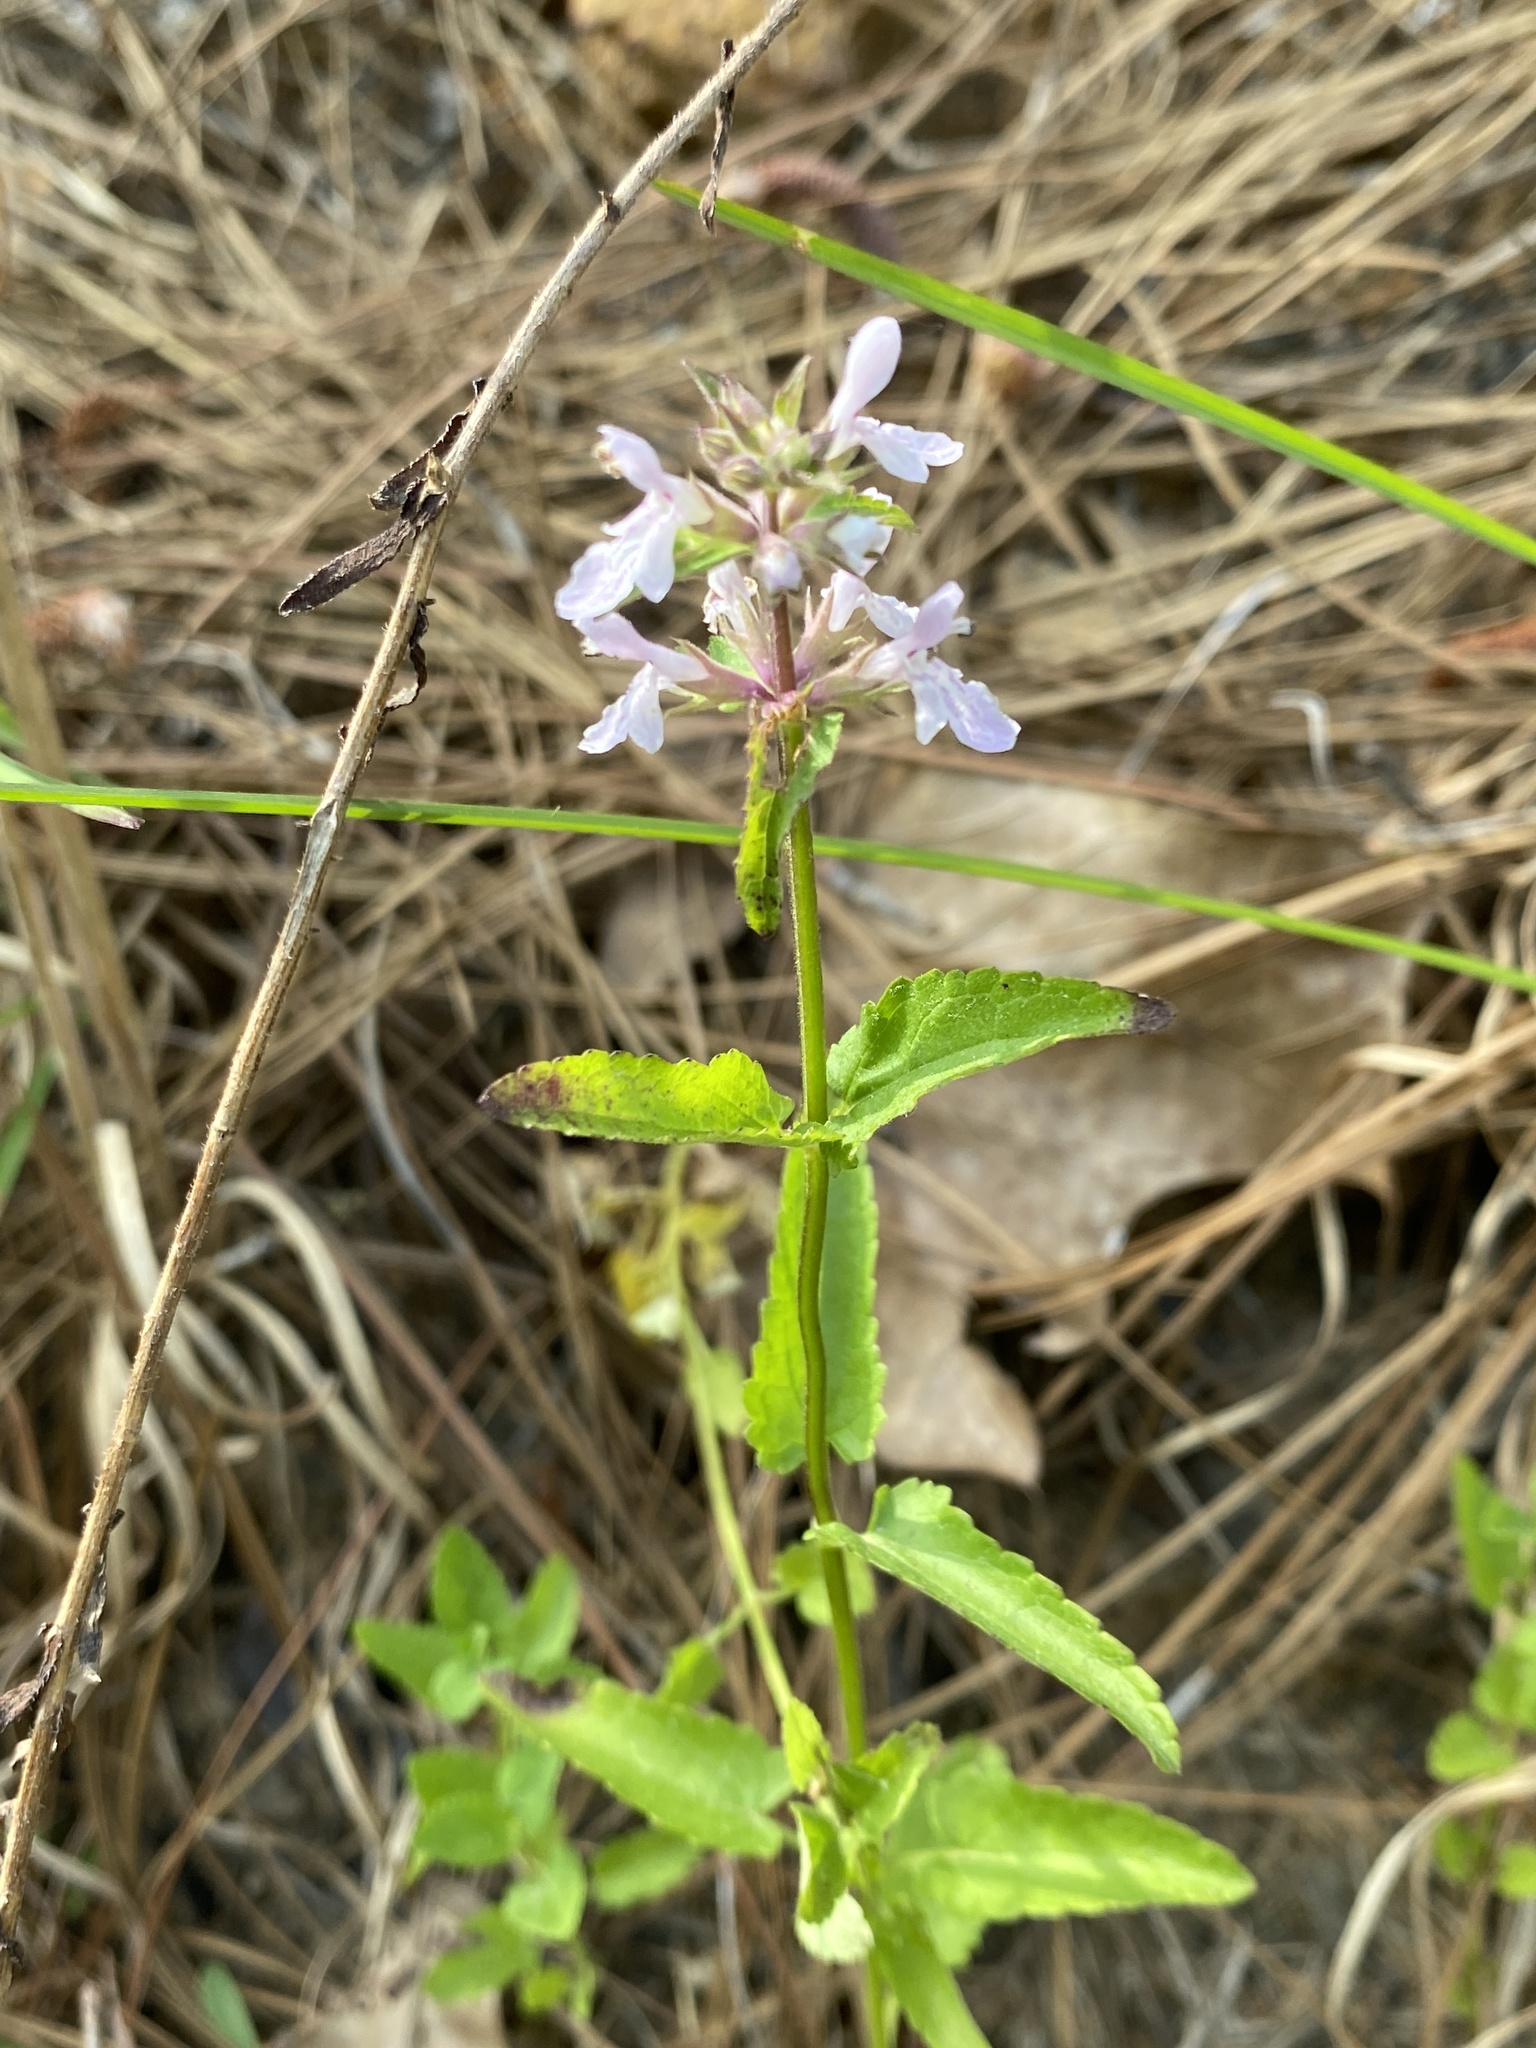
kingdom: Plantae
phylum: Tracheophyta
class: Magnoliopsida
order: Lamiales
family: Lamiaceae
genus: Stachys
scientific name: Stachys floridana
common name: Florida betony
